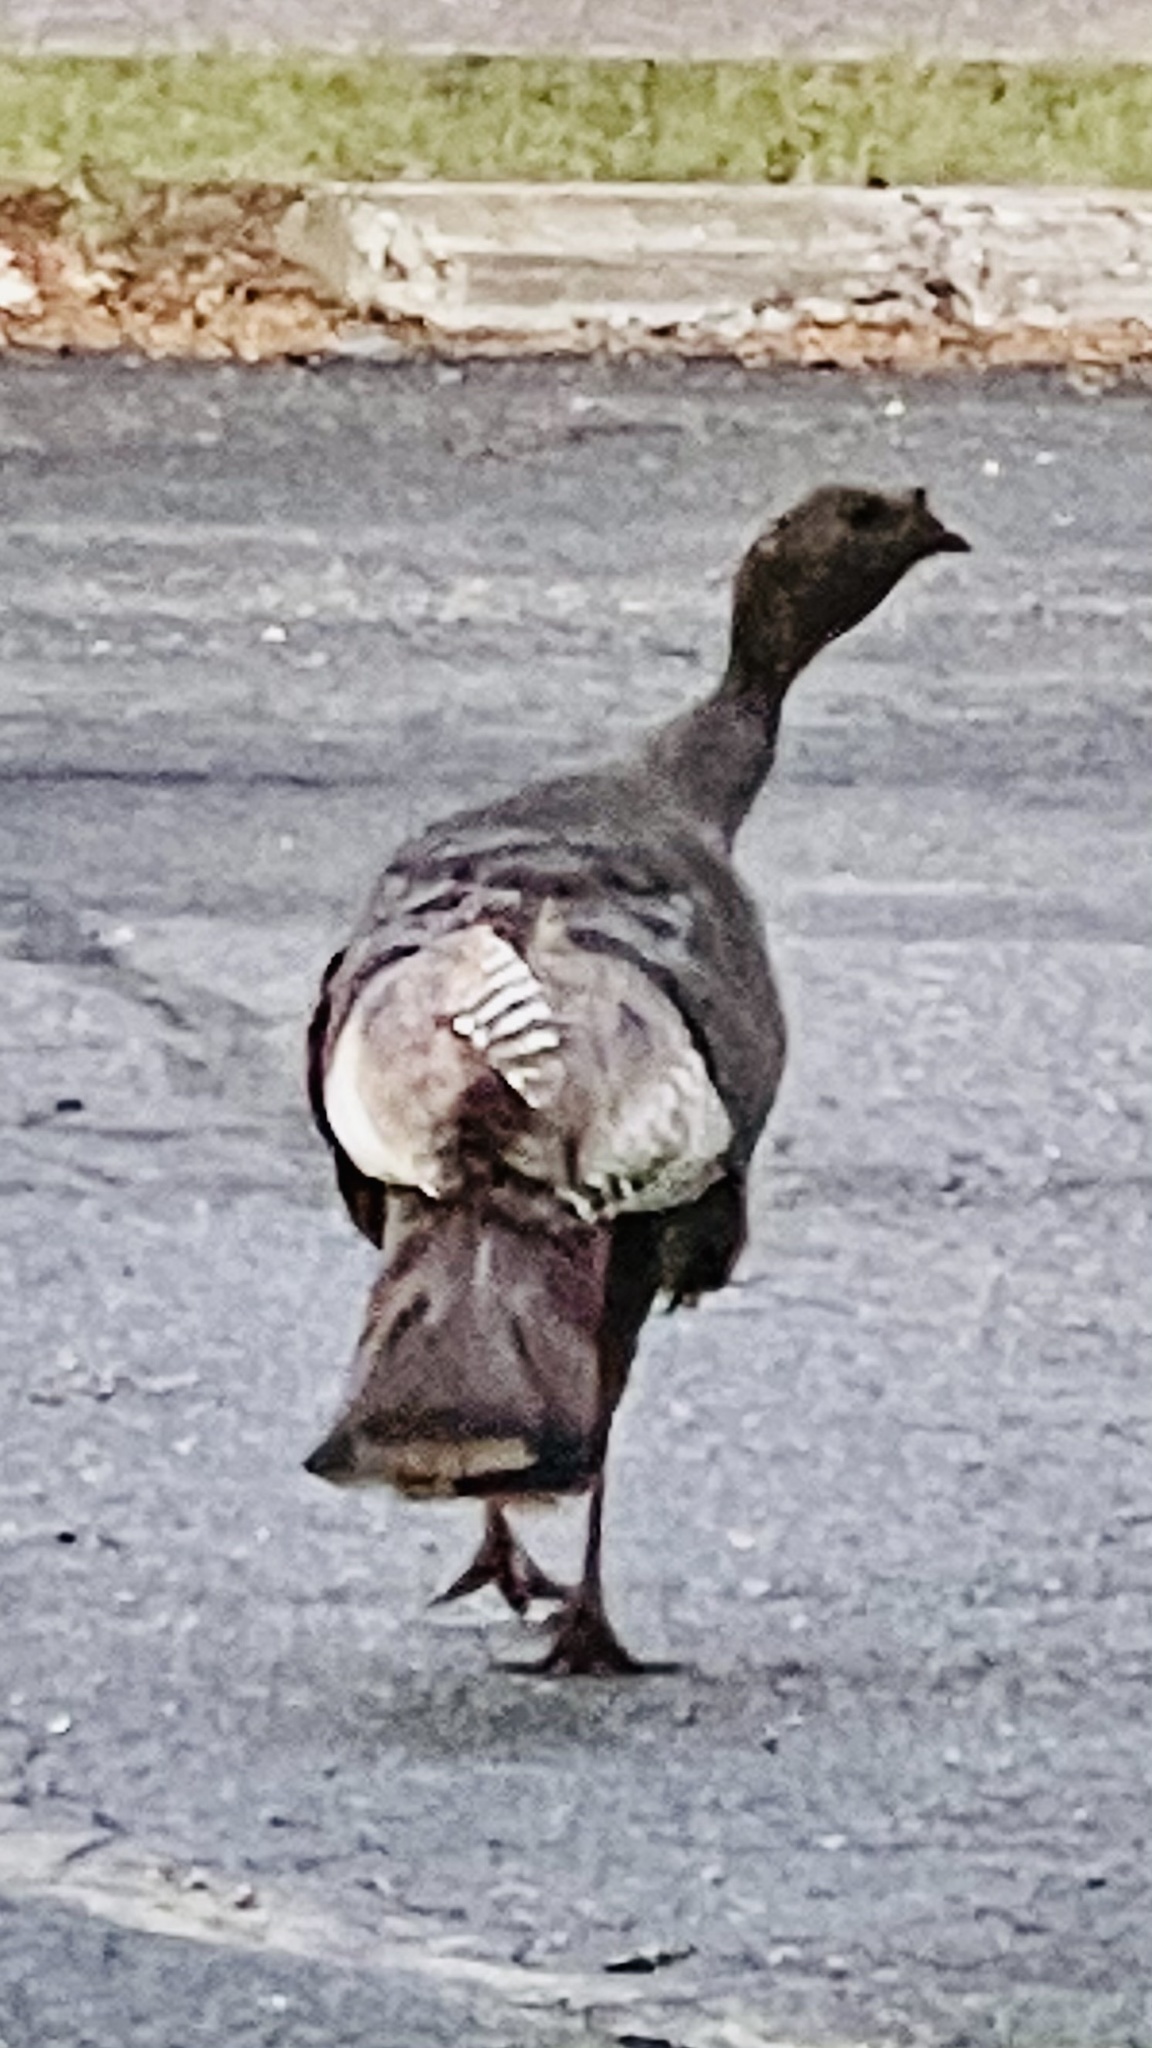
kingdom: Animalia
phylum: Chordata
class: Aves
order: Galliformes
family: Phasianidae
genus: Meleagris
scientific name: Meleagris gallopavo
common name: Wild turkey
